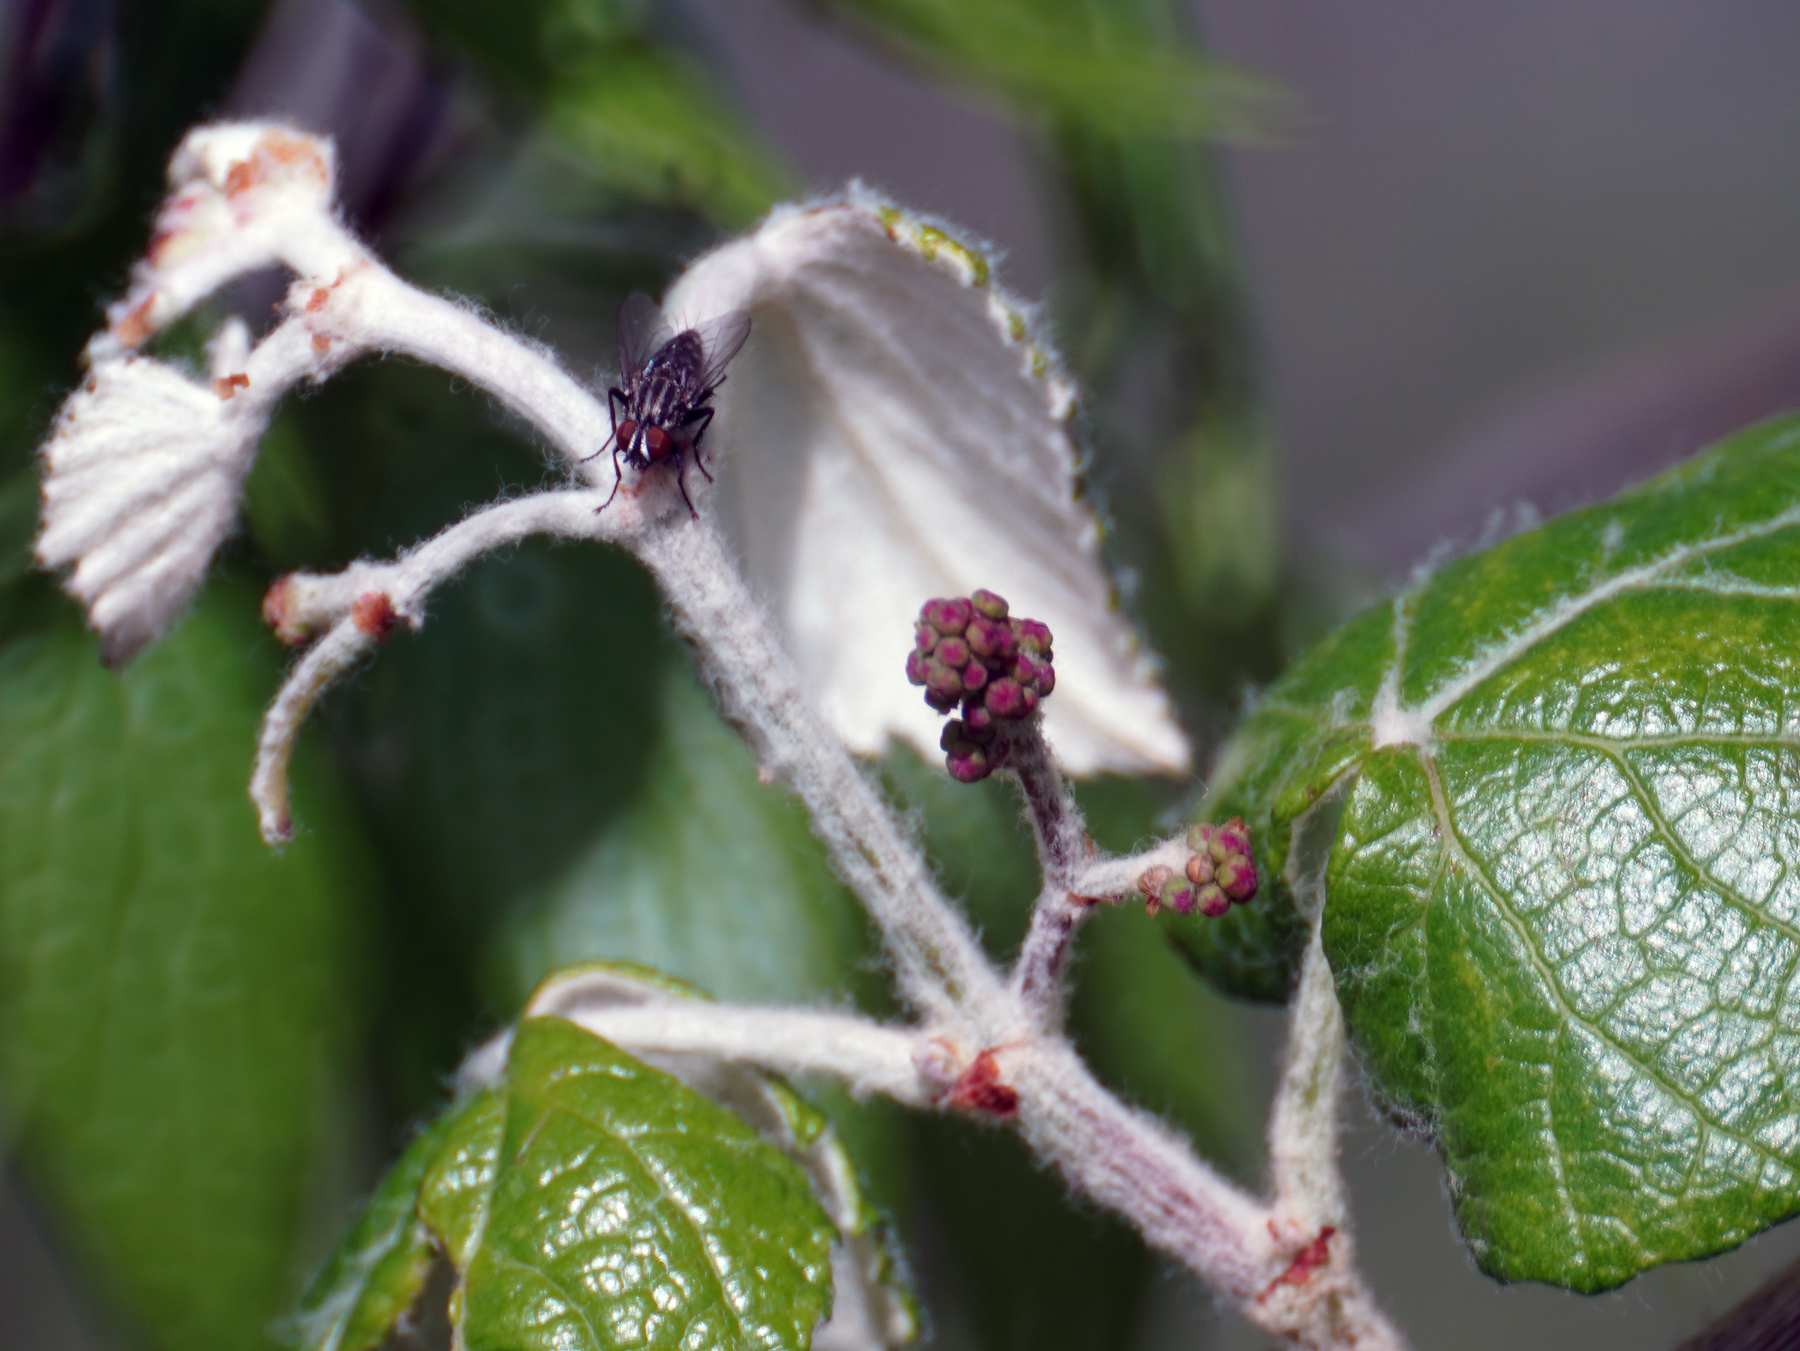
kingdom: Plantae
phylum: Tracheophyta
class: Magnoliopsida
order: Vitales
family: Vitaceae
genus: Vitis
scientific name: Vitis mustangensis
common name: Mustang grape
